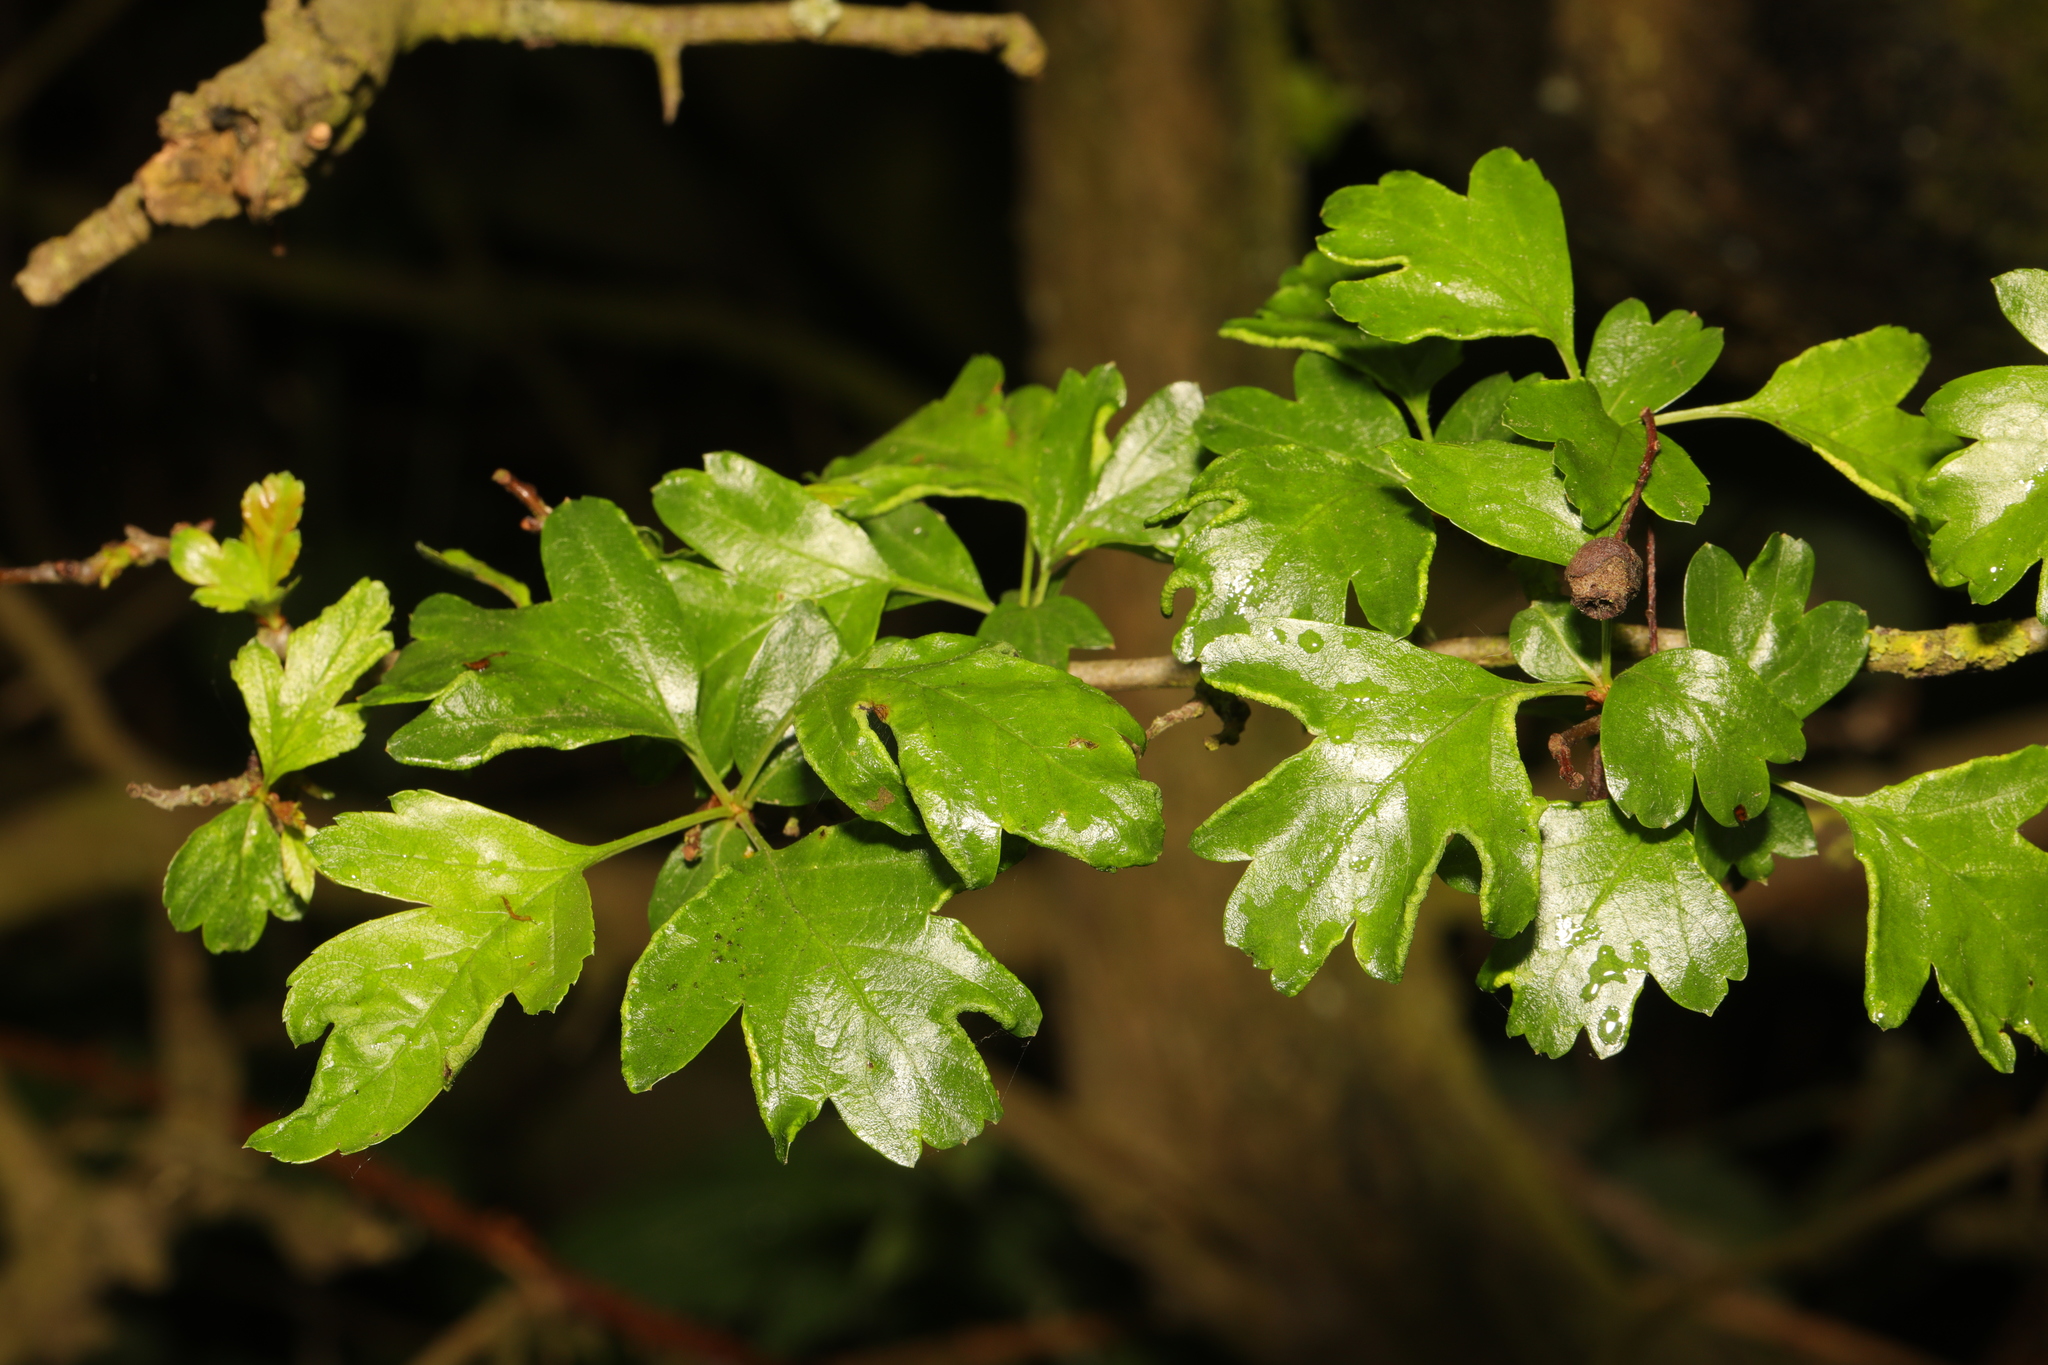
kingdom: Plantae
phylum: Tracheophyta
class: Magnoliopsida
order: Rosales
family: Rosaceae
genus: Crataegus
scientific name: Crataegus monogyna
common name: Hawthorn
